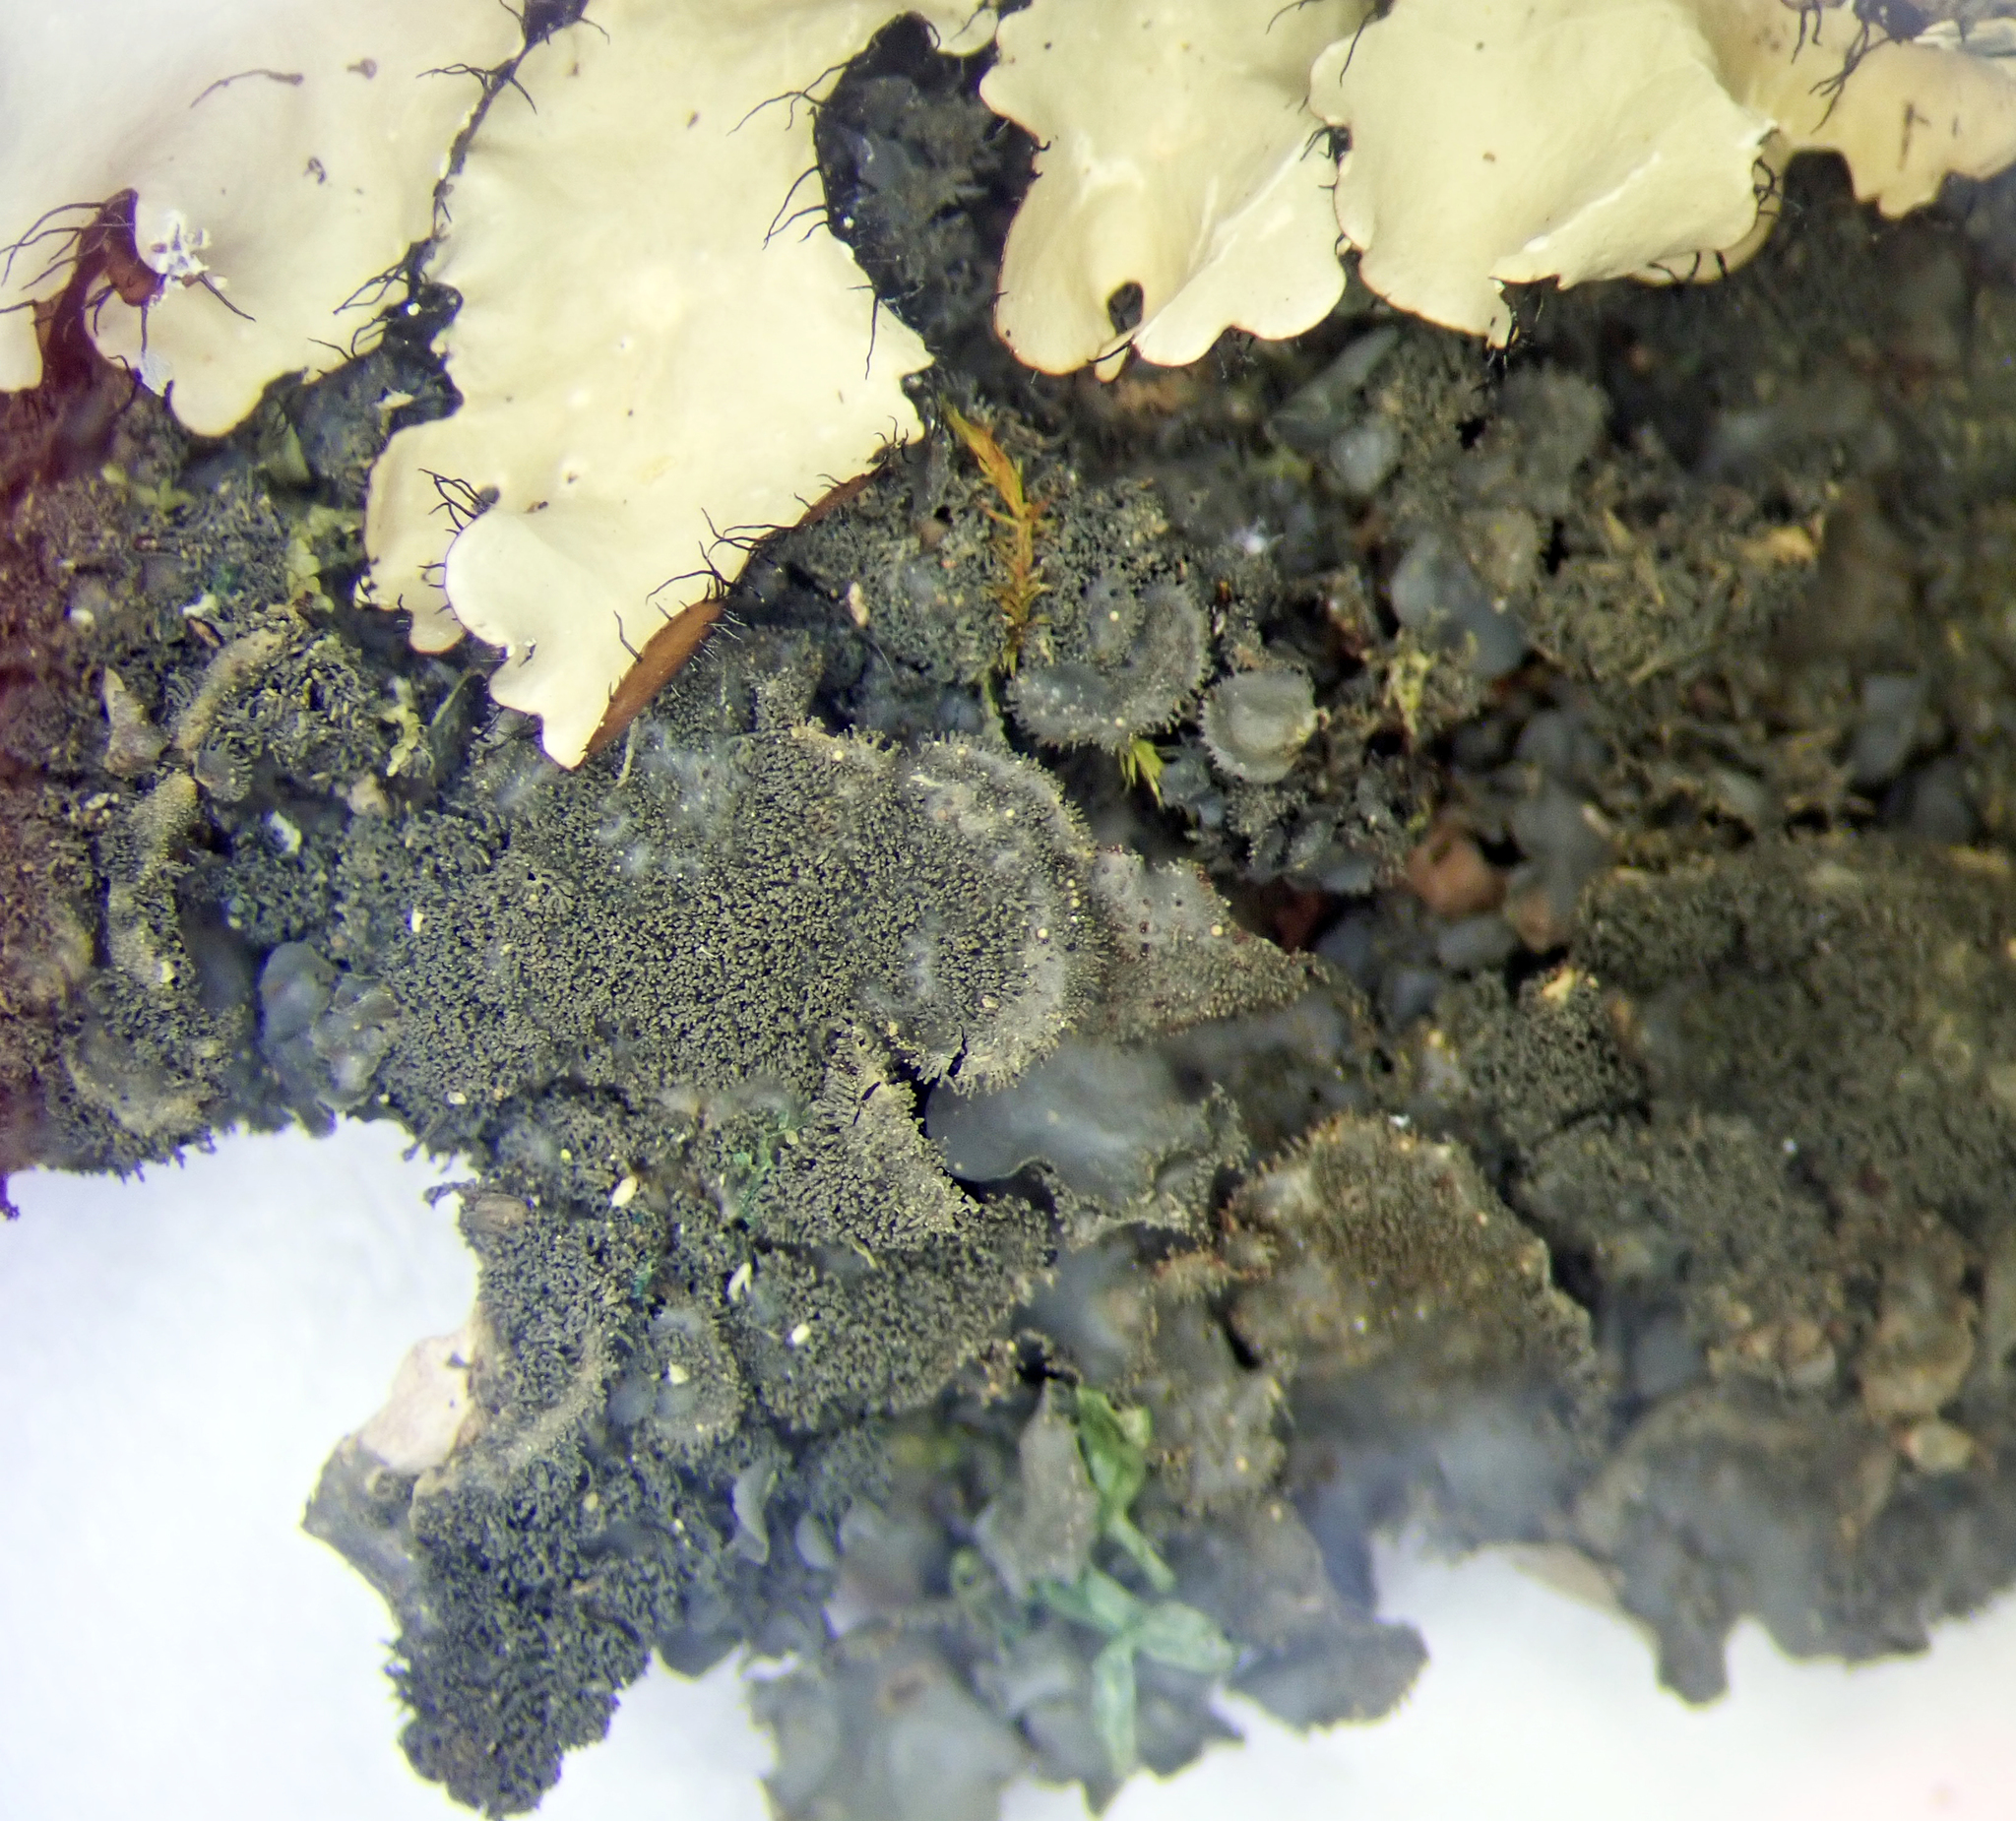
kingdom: Fungi
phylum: Ascomycota
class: Lecanoromycetes
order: Peltigerales
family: Collemataceae
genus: Leptogium
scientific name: Leptogium cyanescens
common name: Blue jellyskin
